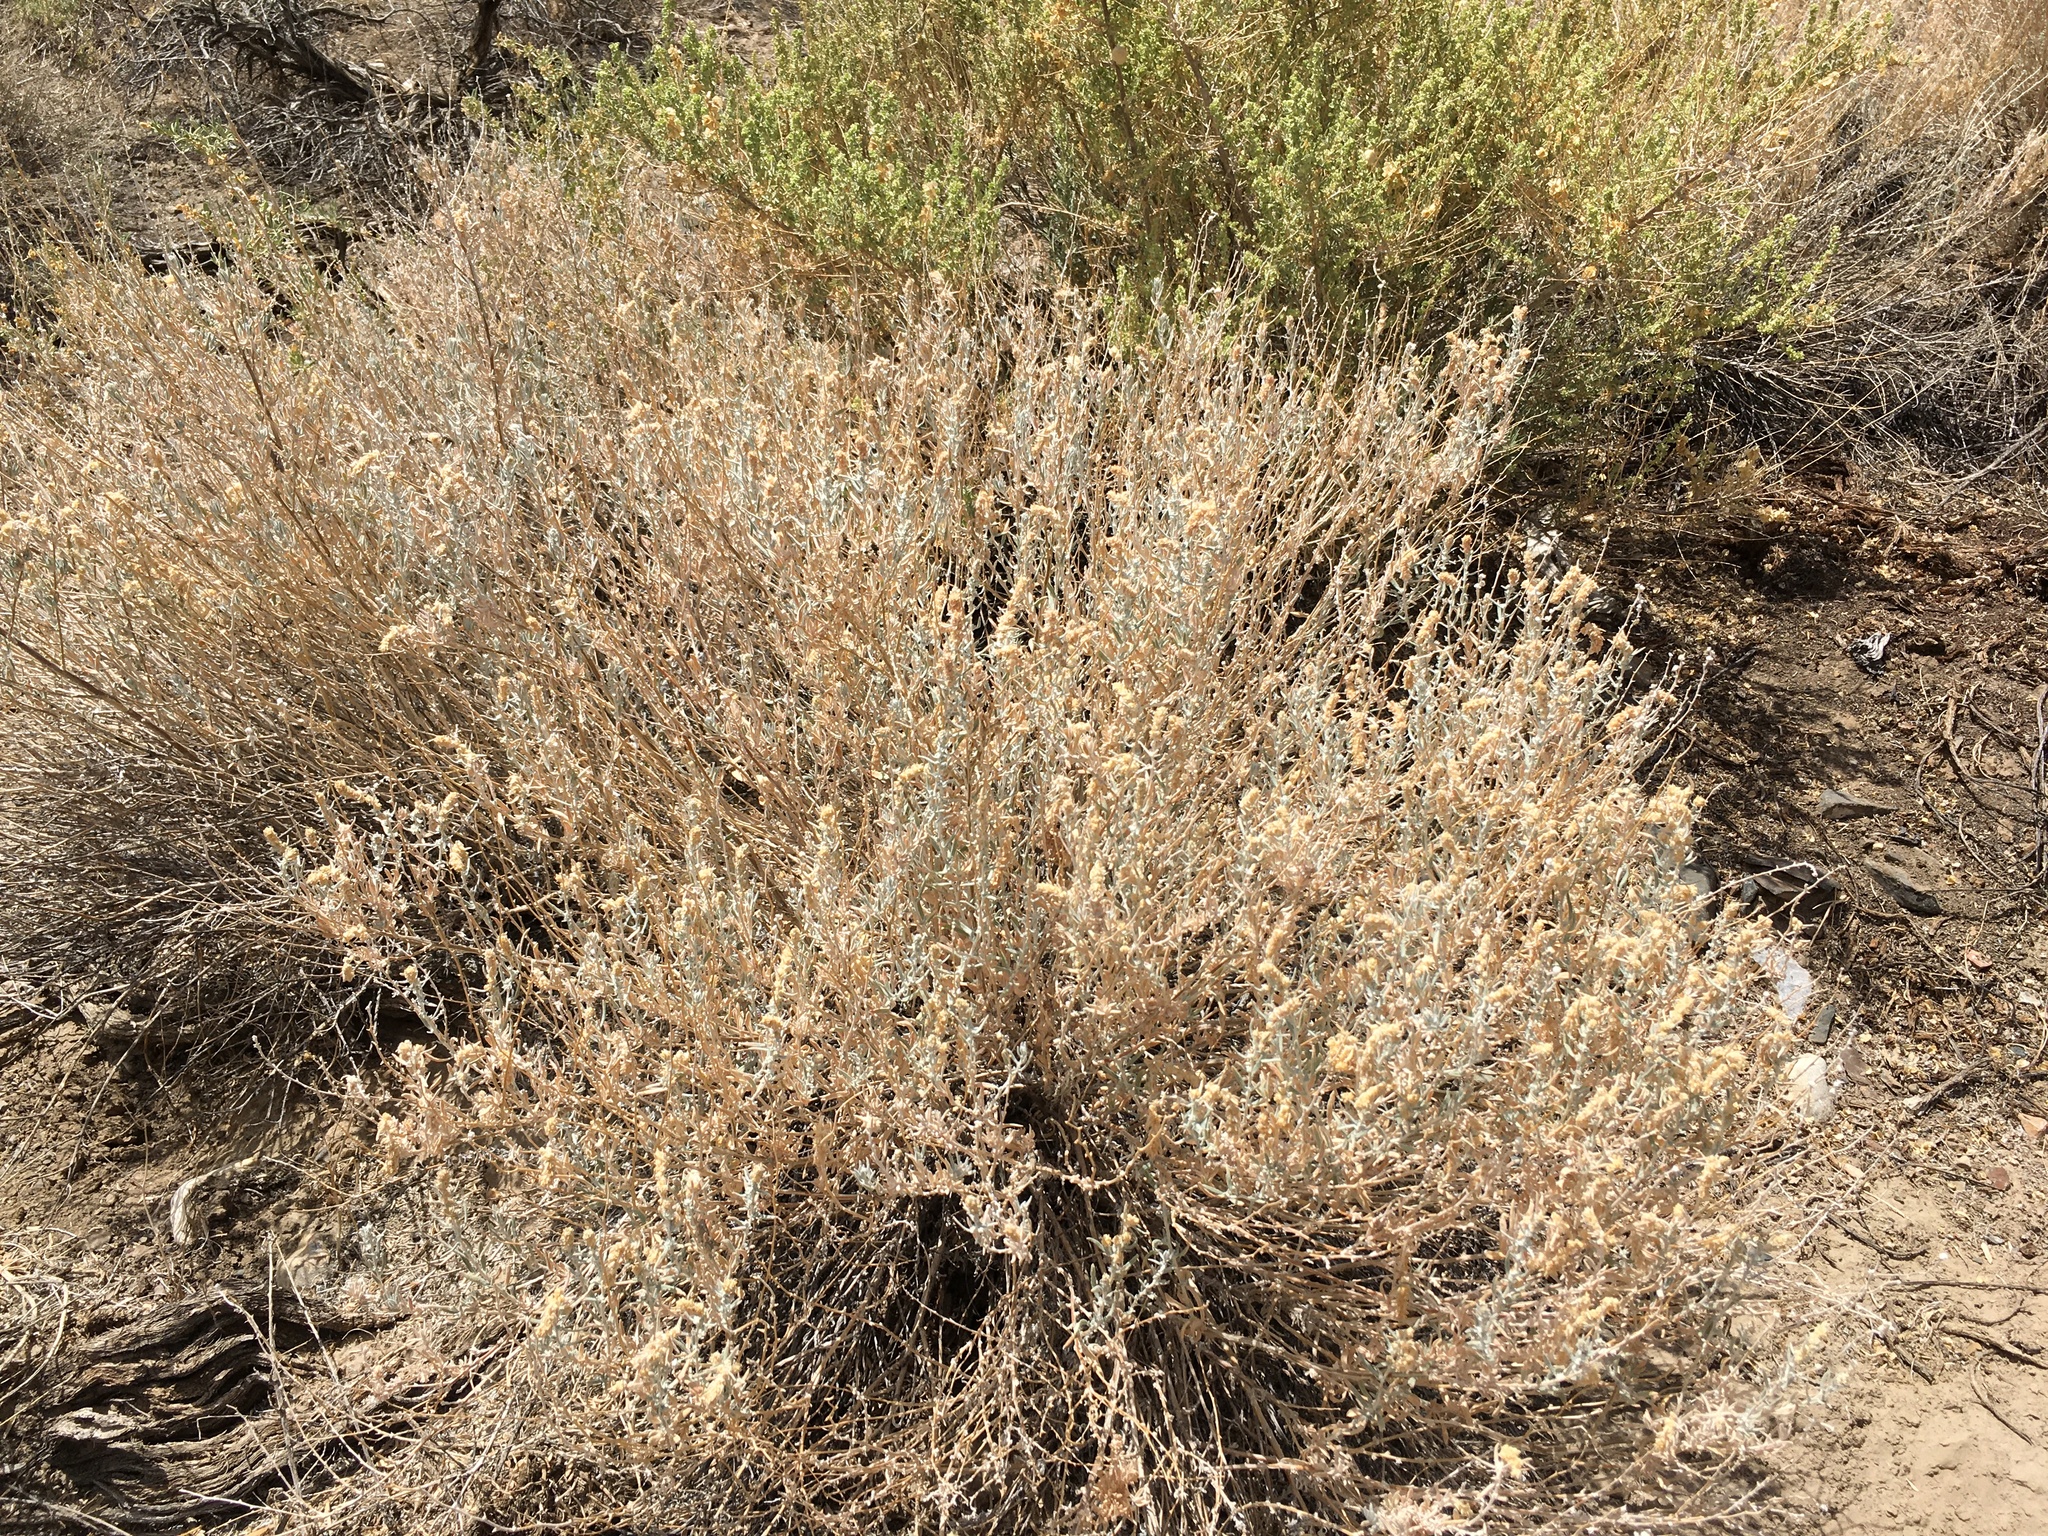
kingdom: Plantae
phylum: Tracheophyta
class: Magnoliopsida
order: Caryophyllales
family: Amaranthaceae
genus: Krascheninnikovia
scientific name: Krascheninnikovia lanata
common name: Winterfat
